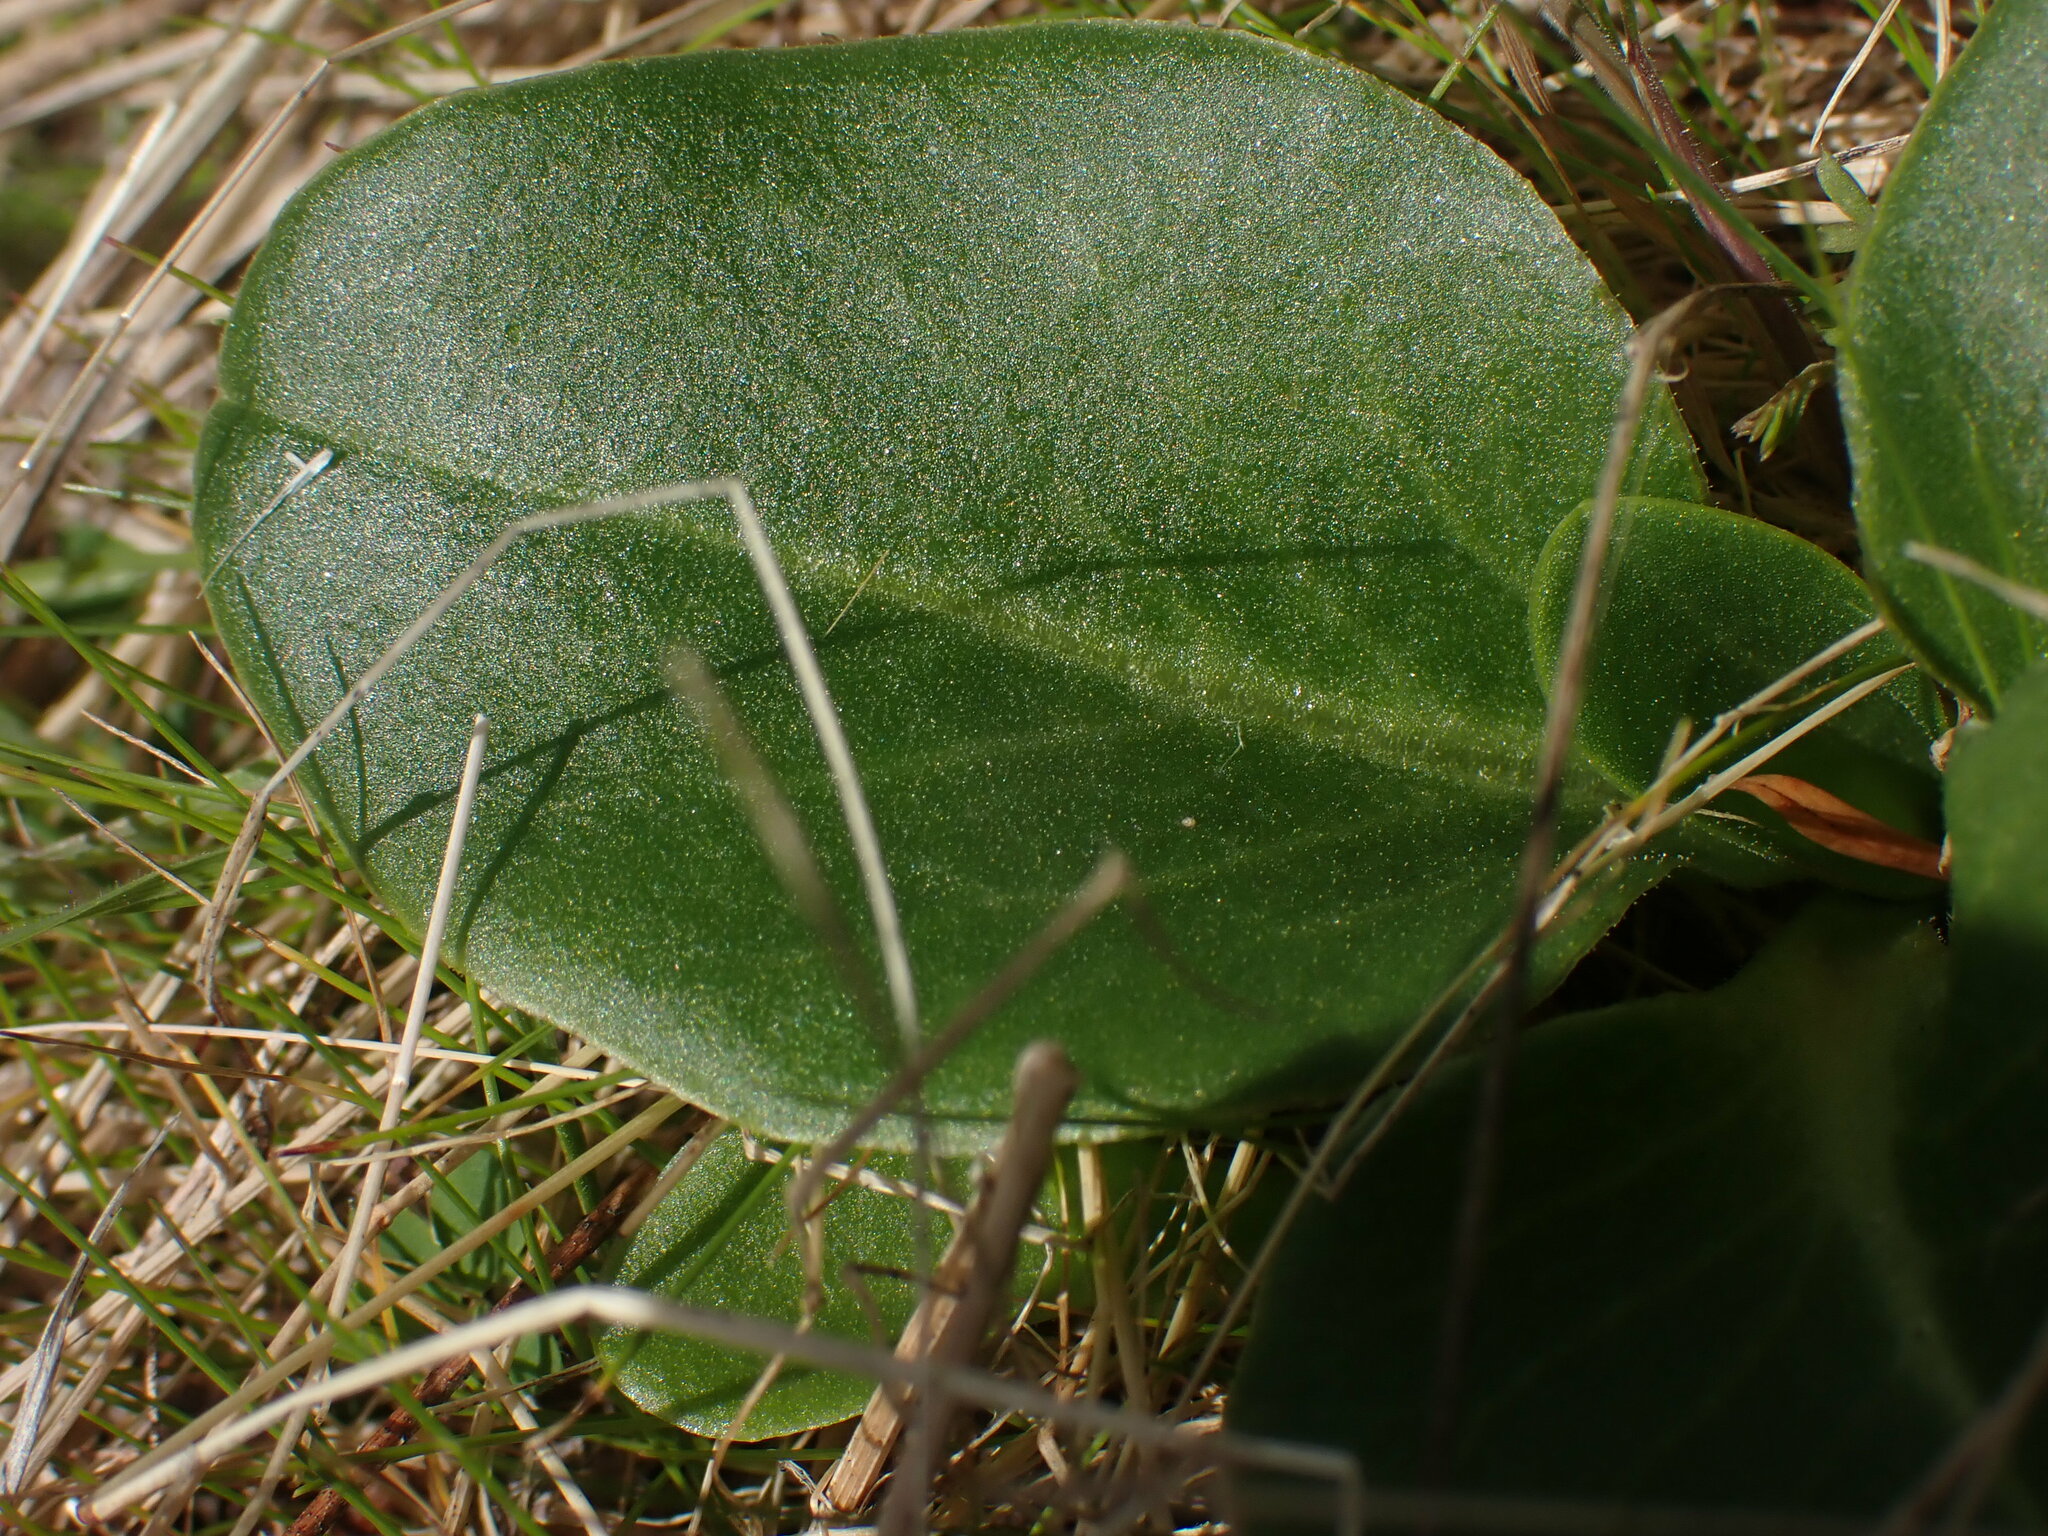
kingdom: Plantae
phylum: Tracheophyta
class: Magnoliopsida
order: Ericales
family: Primulaceae
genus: Dodecatheon
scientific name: Dodecatheon hendersonii
